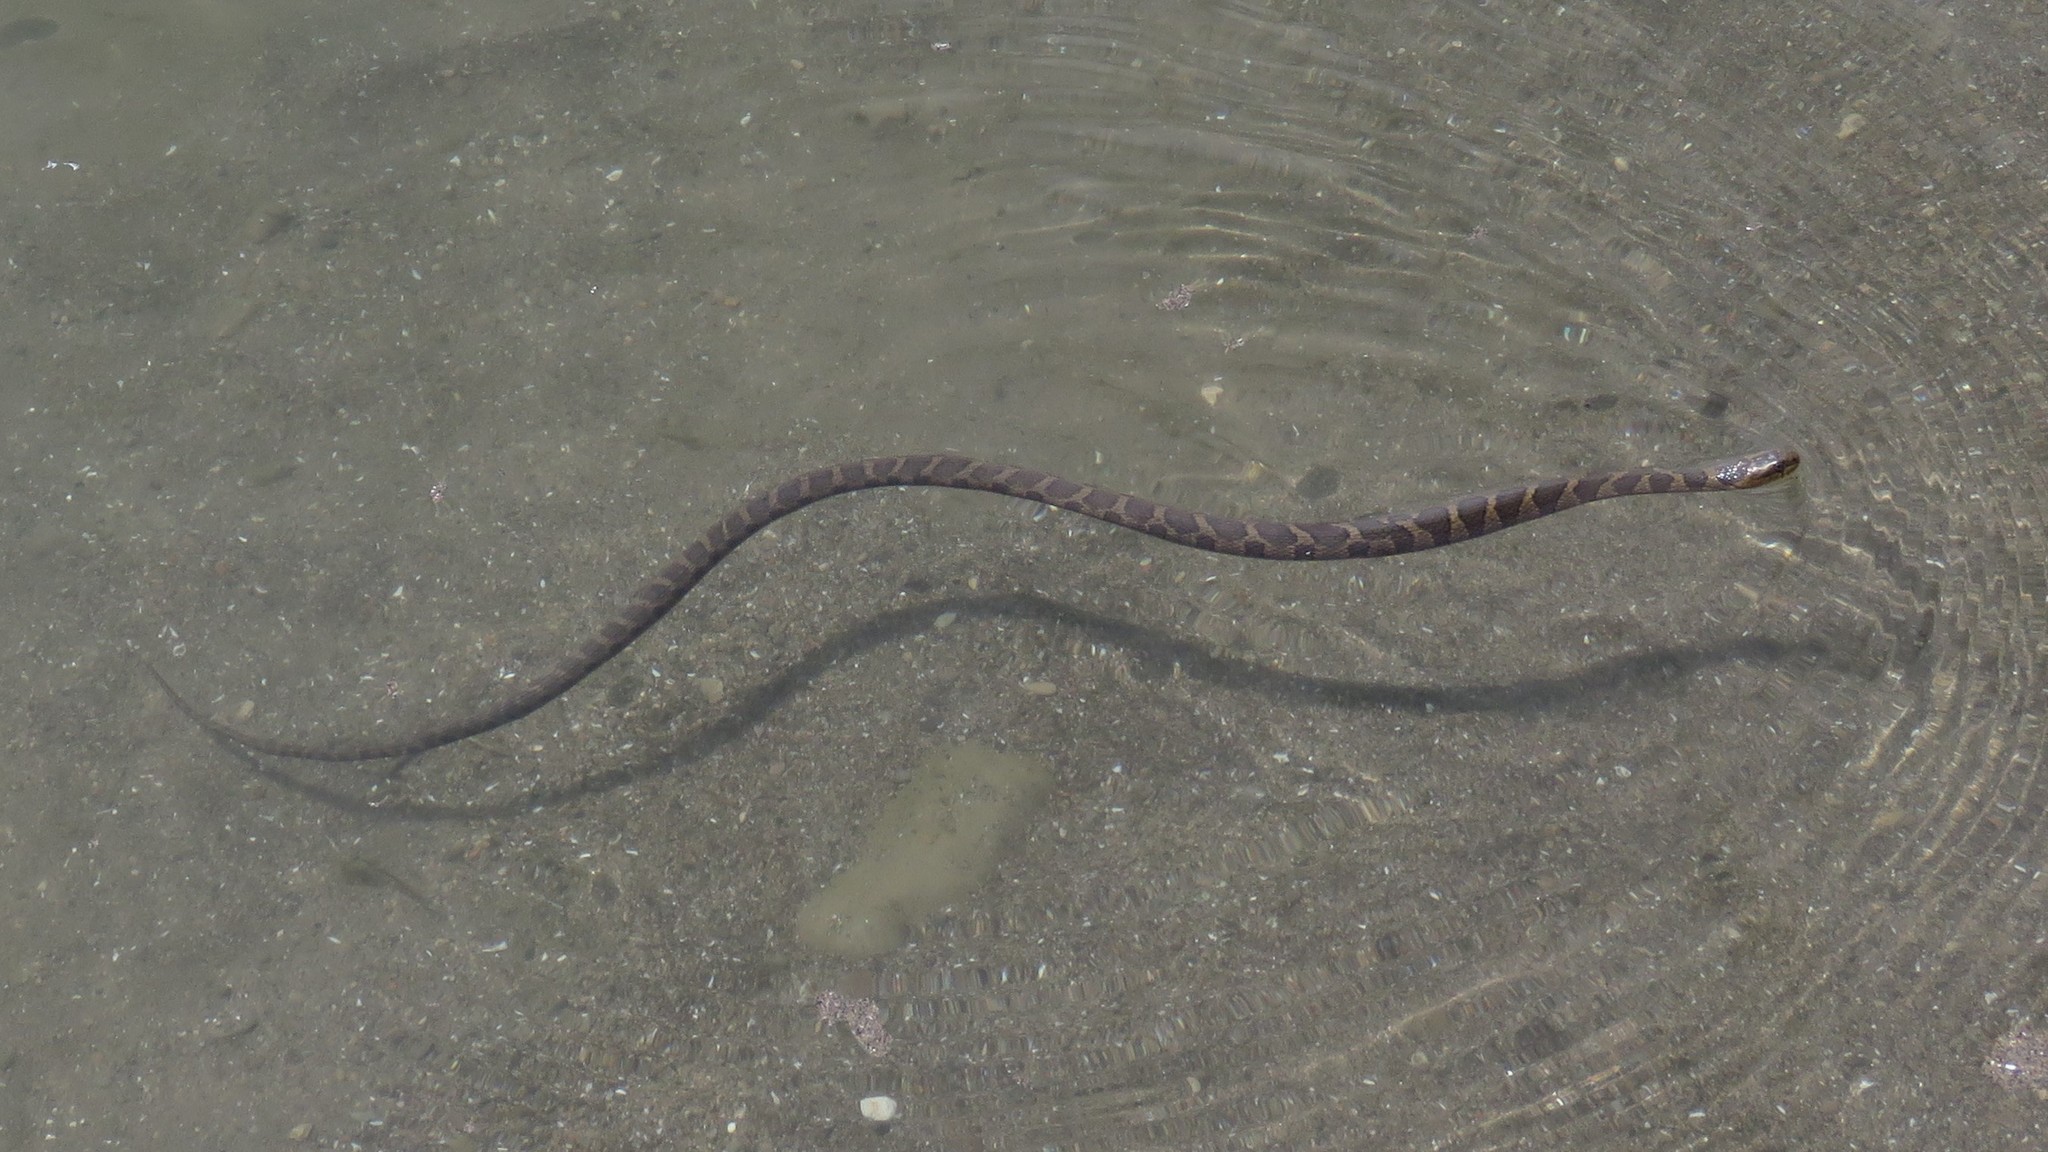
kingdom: Animalia
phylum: Chordata
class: Squamata
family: Colubridae
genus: Nerodia
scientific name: Nerodia sipedon
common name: Northern water snake
